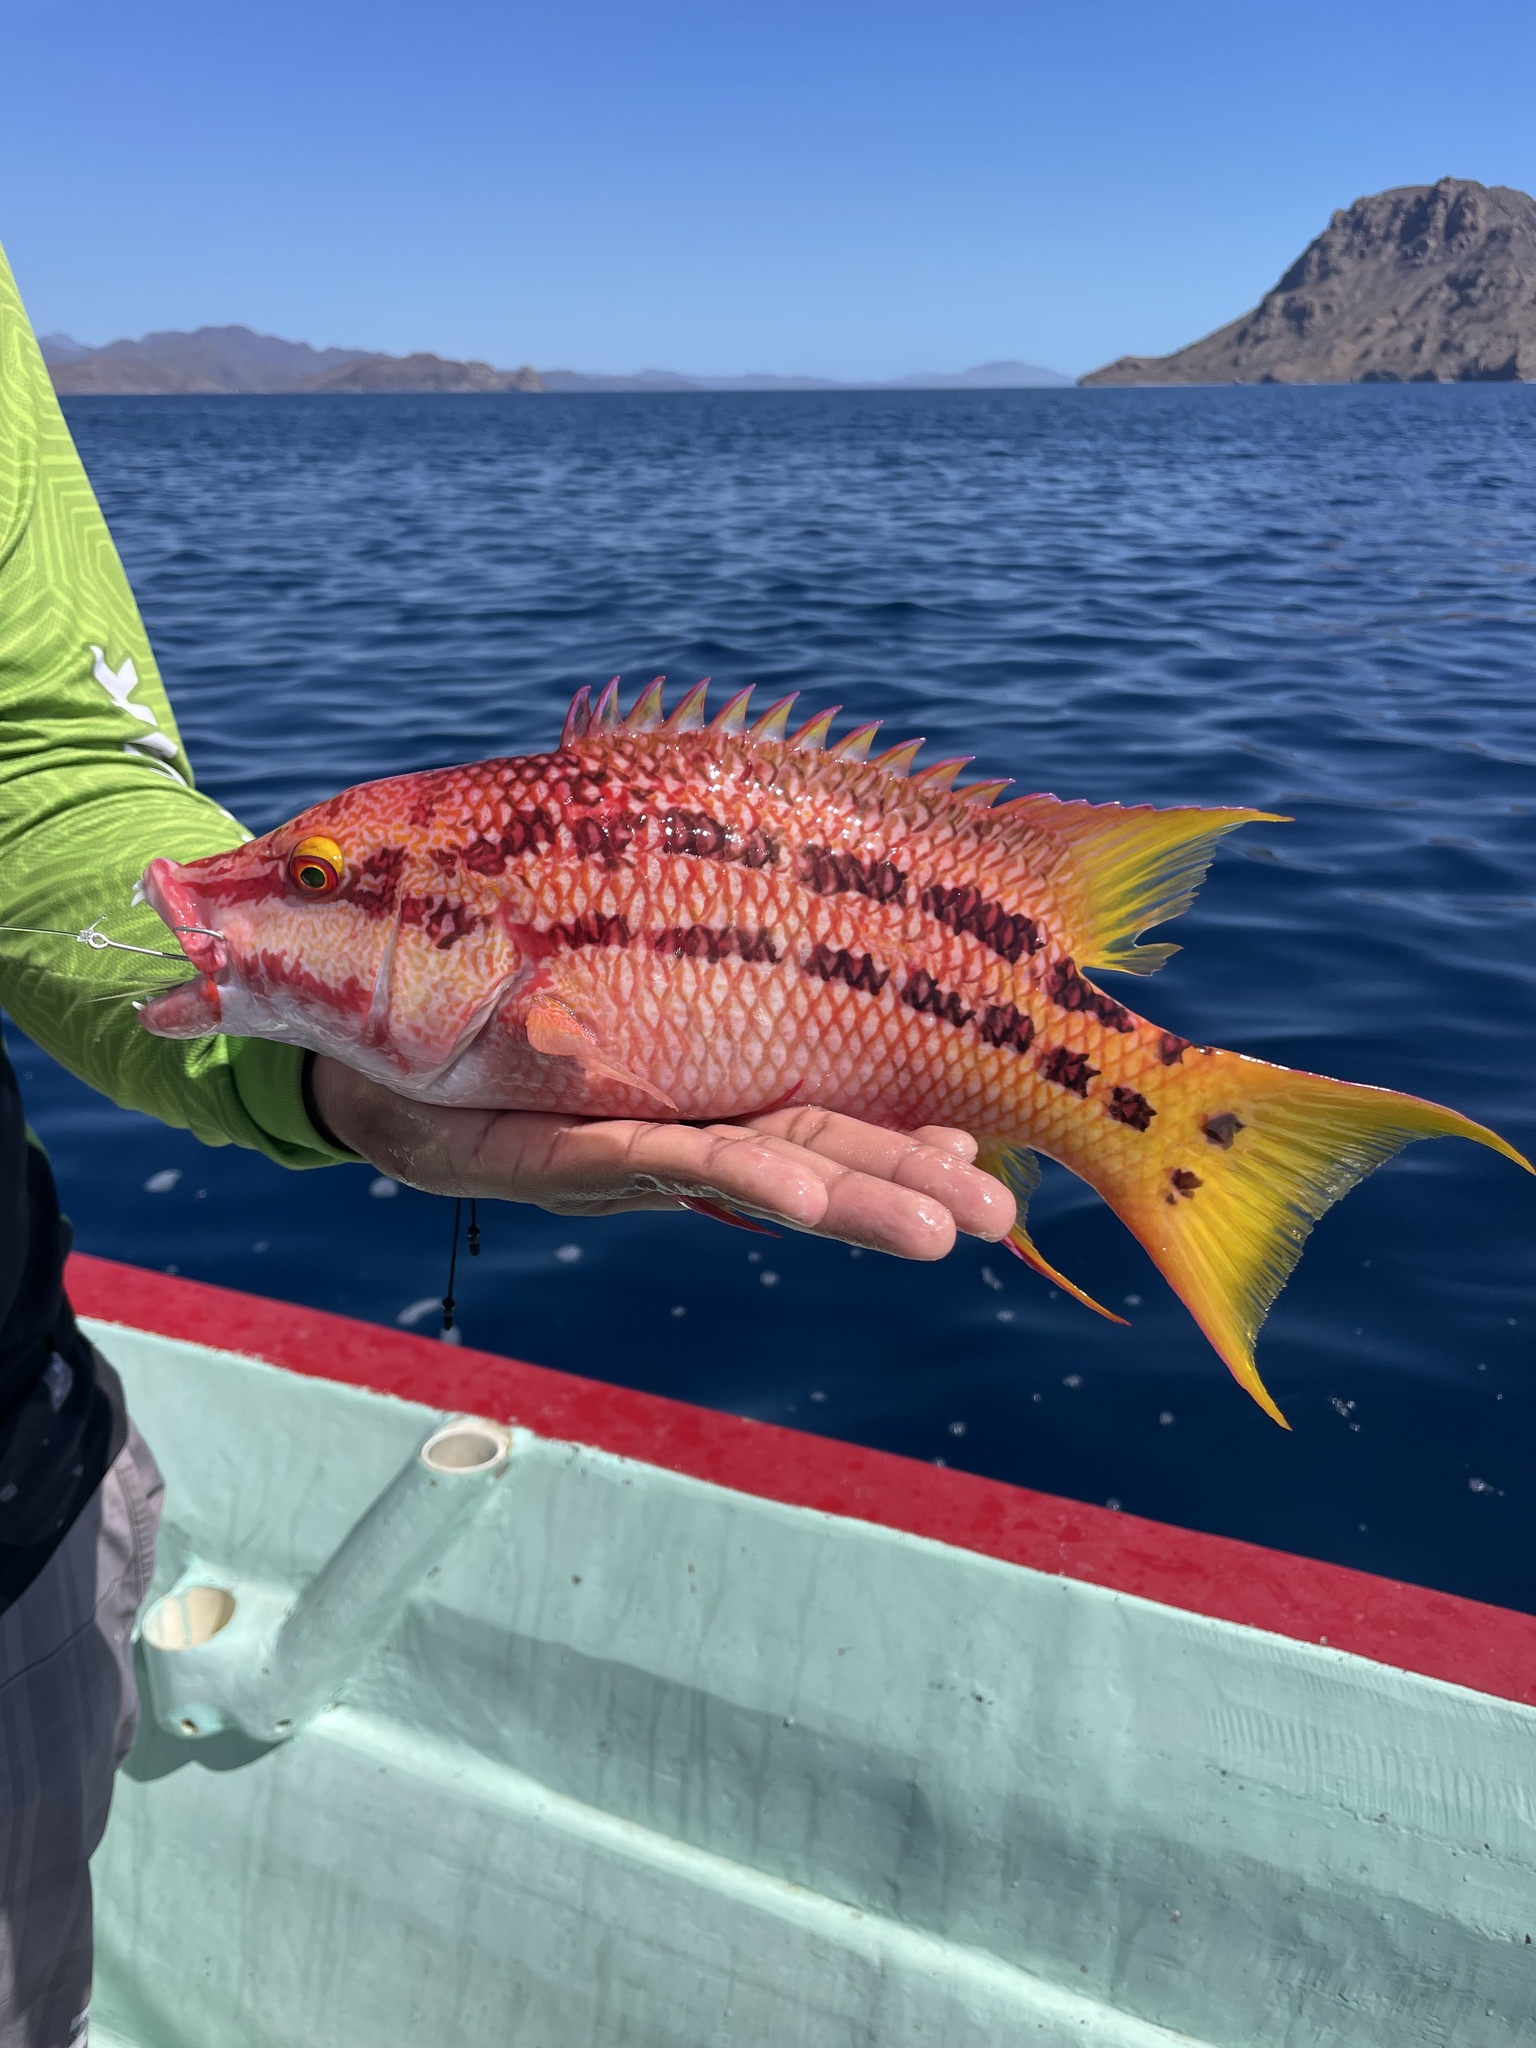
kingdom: Animalia
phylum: Chordata
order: Perciformes
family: Labridae
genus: Bodianus
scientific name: Bodianus diplotaenia
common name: Mexican hogfish
